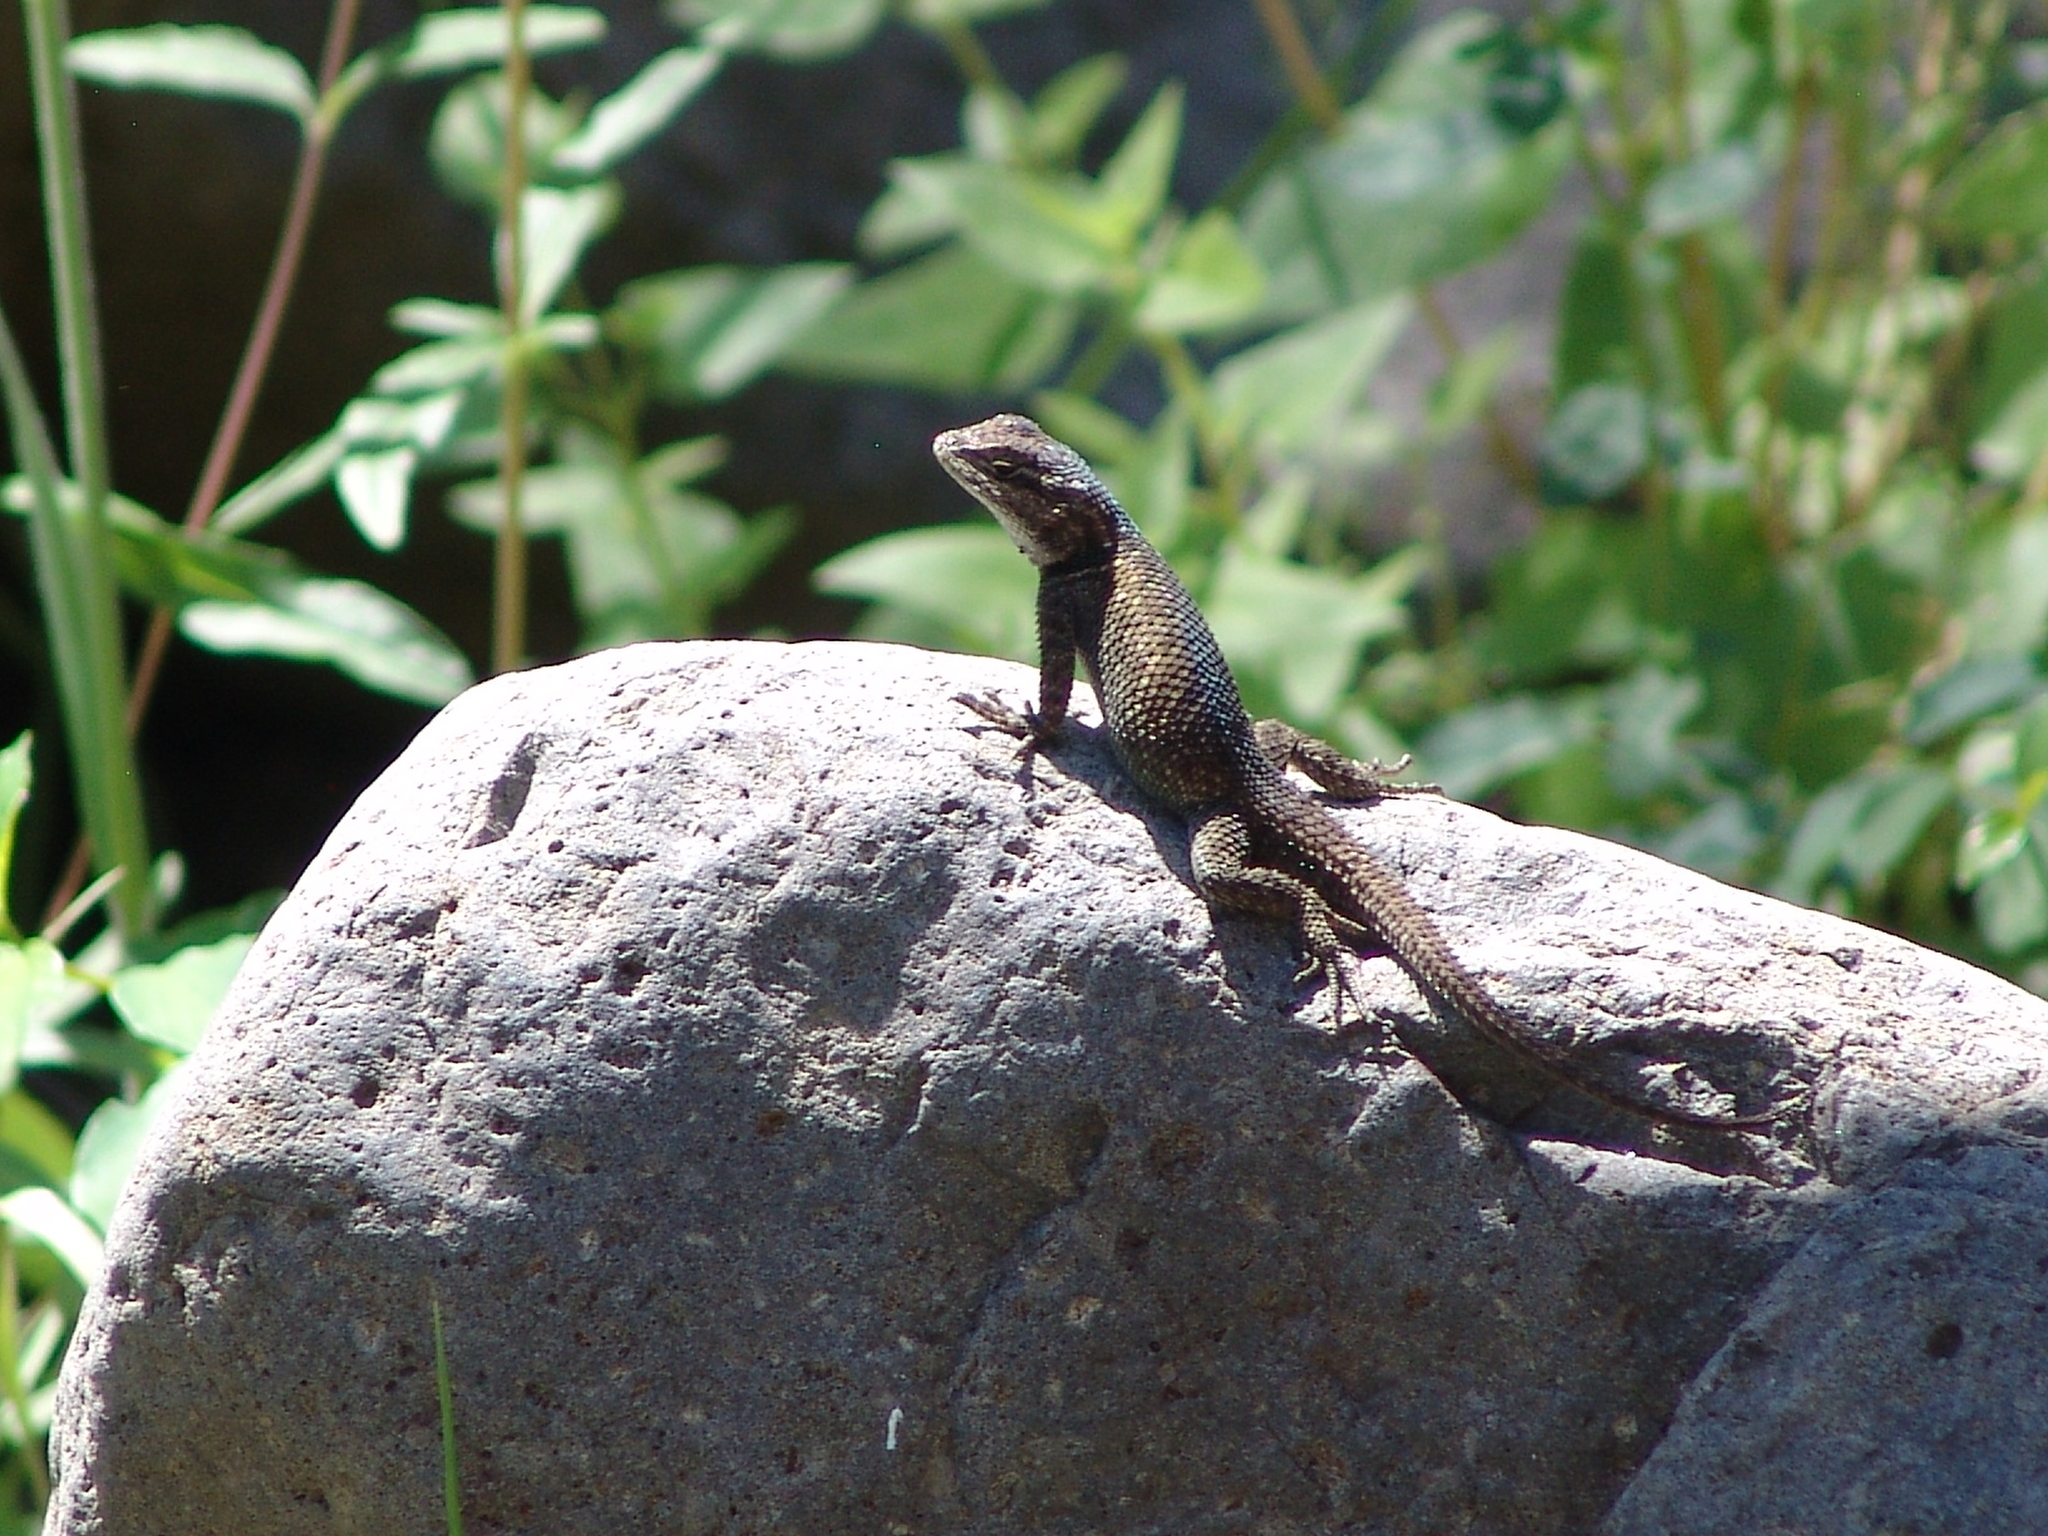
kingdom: Animalia
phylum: Chordata
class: Squamata
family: Phrynosomatidae
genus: Sceloporus
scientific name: Sceloporus jarrovii
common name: Yarrow's spiny lizard
